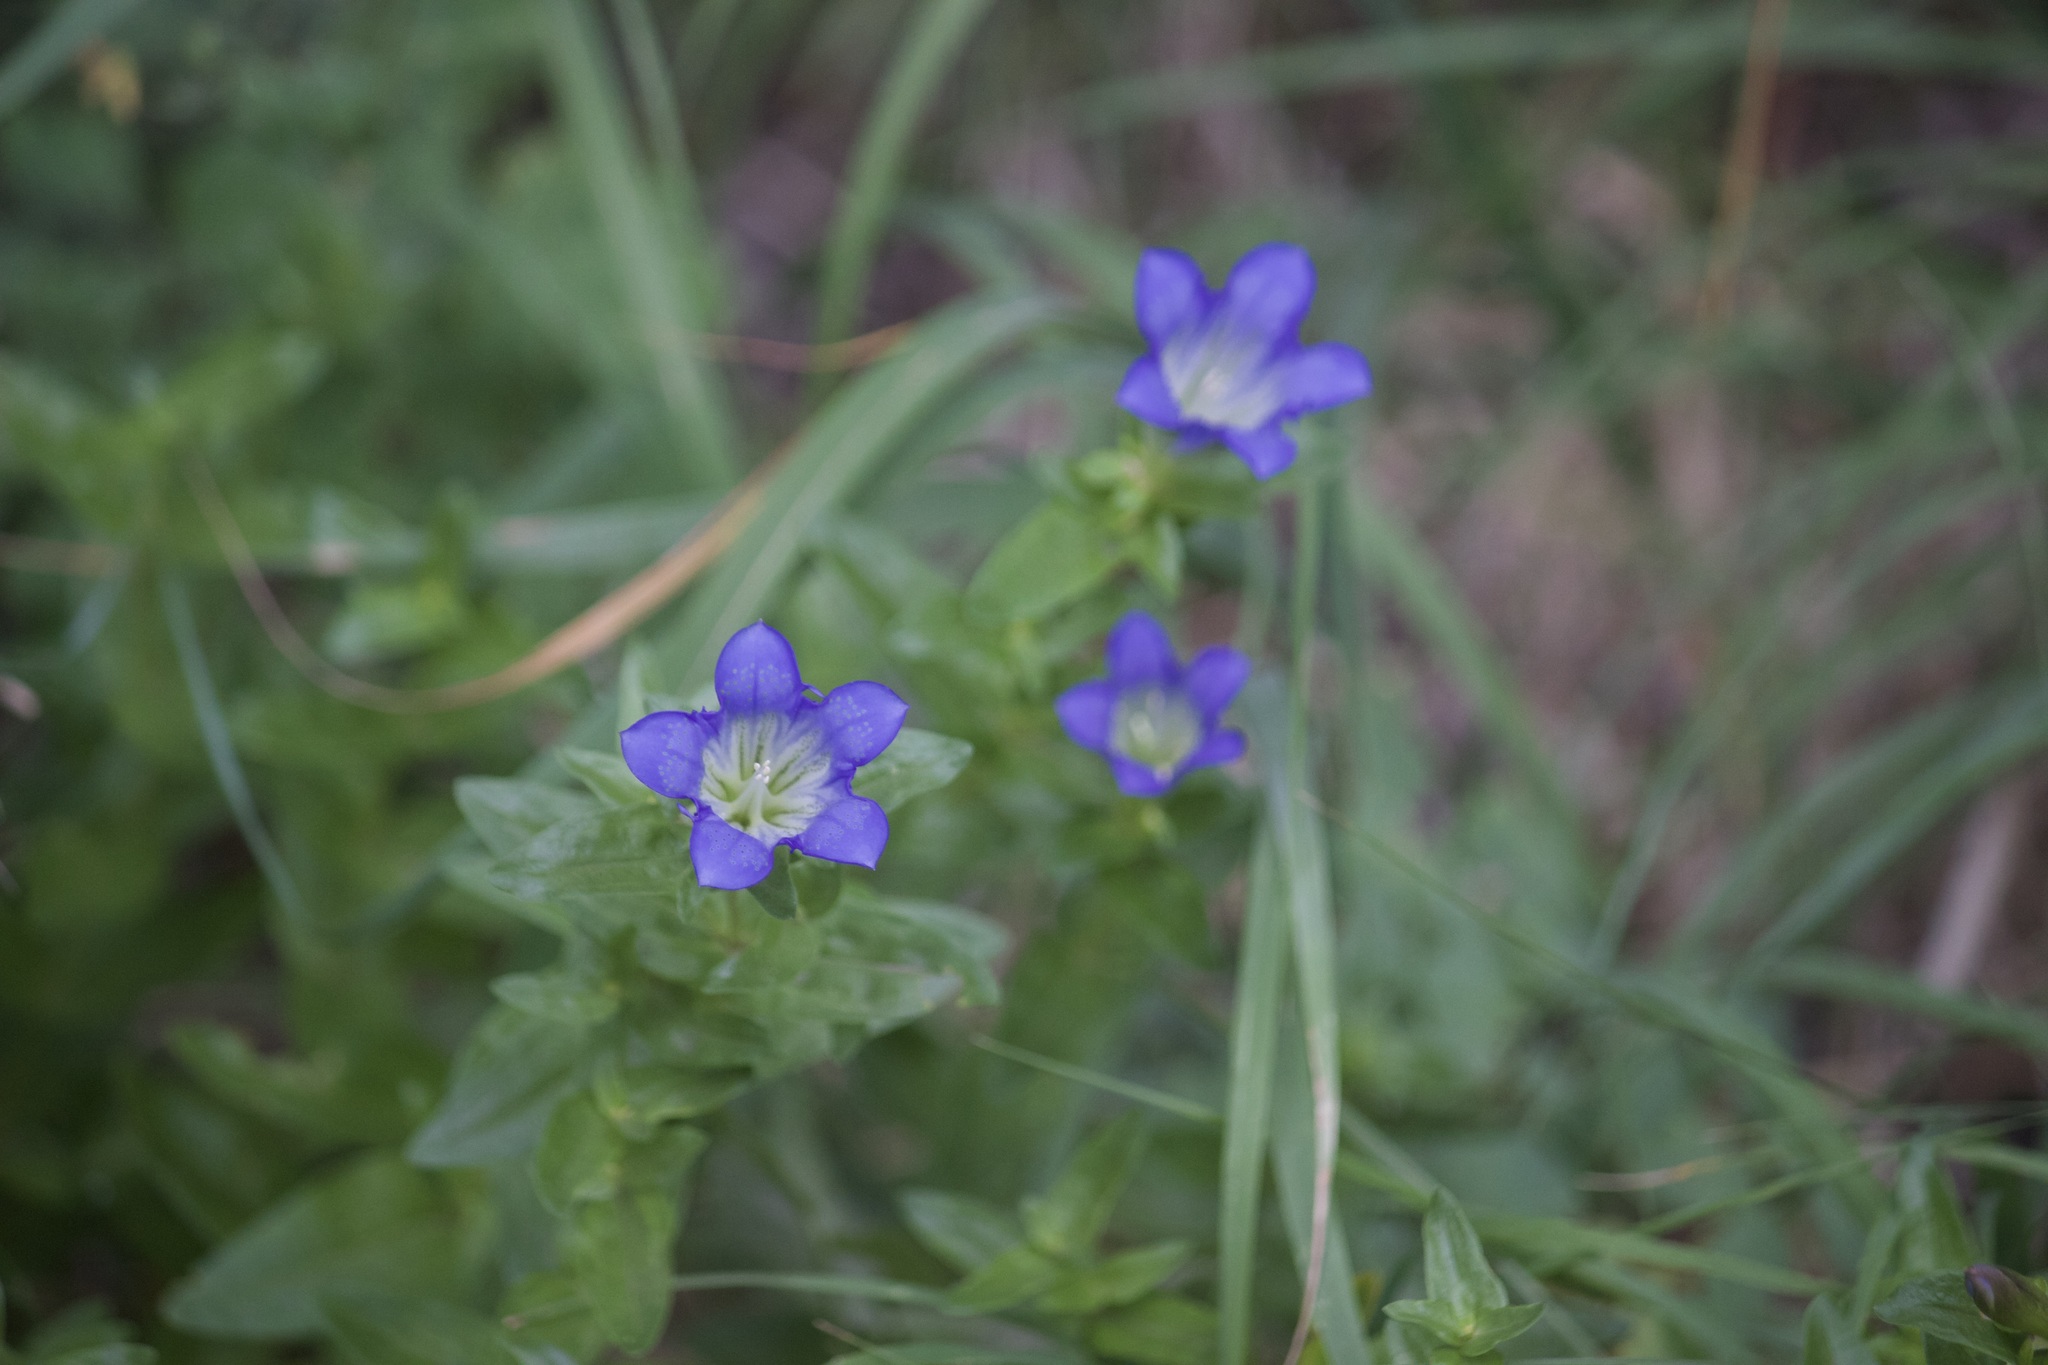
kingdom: Plantae
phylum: Tracheophyta
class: Magnoliopsida
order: Gentianales
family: Gentianaceae
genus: Gentiana
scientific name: Gentiana calycosa
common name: Rainier pleated gentian
